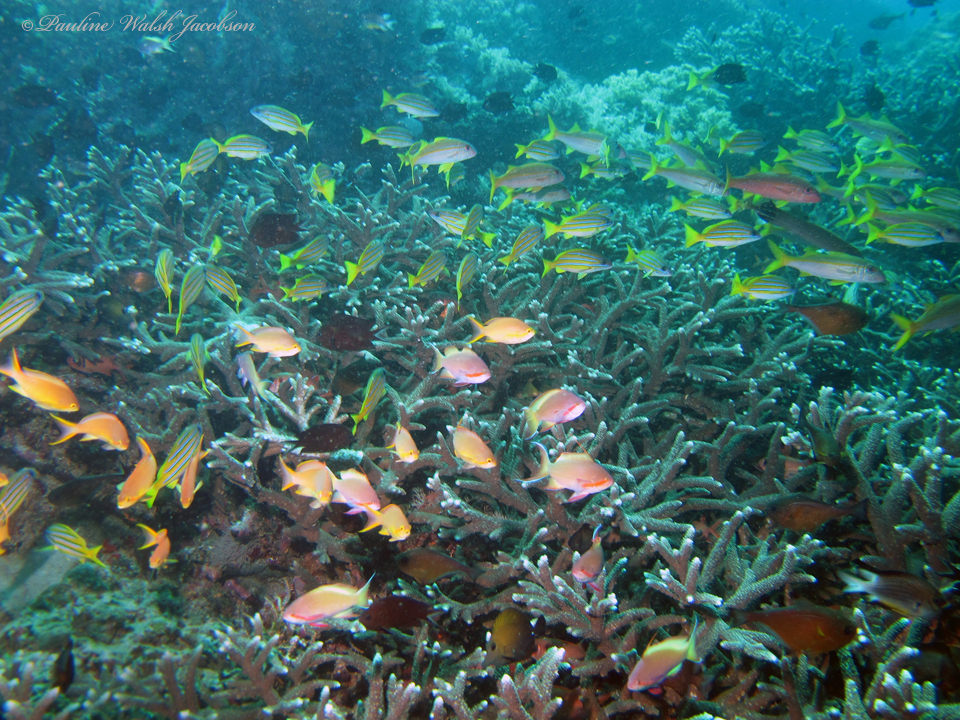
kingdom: Animalia
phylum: Chordata
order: Perciformes
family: Serranidae
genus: Pseudanthias
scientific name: Pseudanthias huchtii
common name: Pacific basslet
